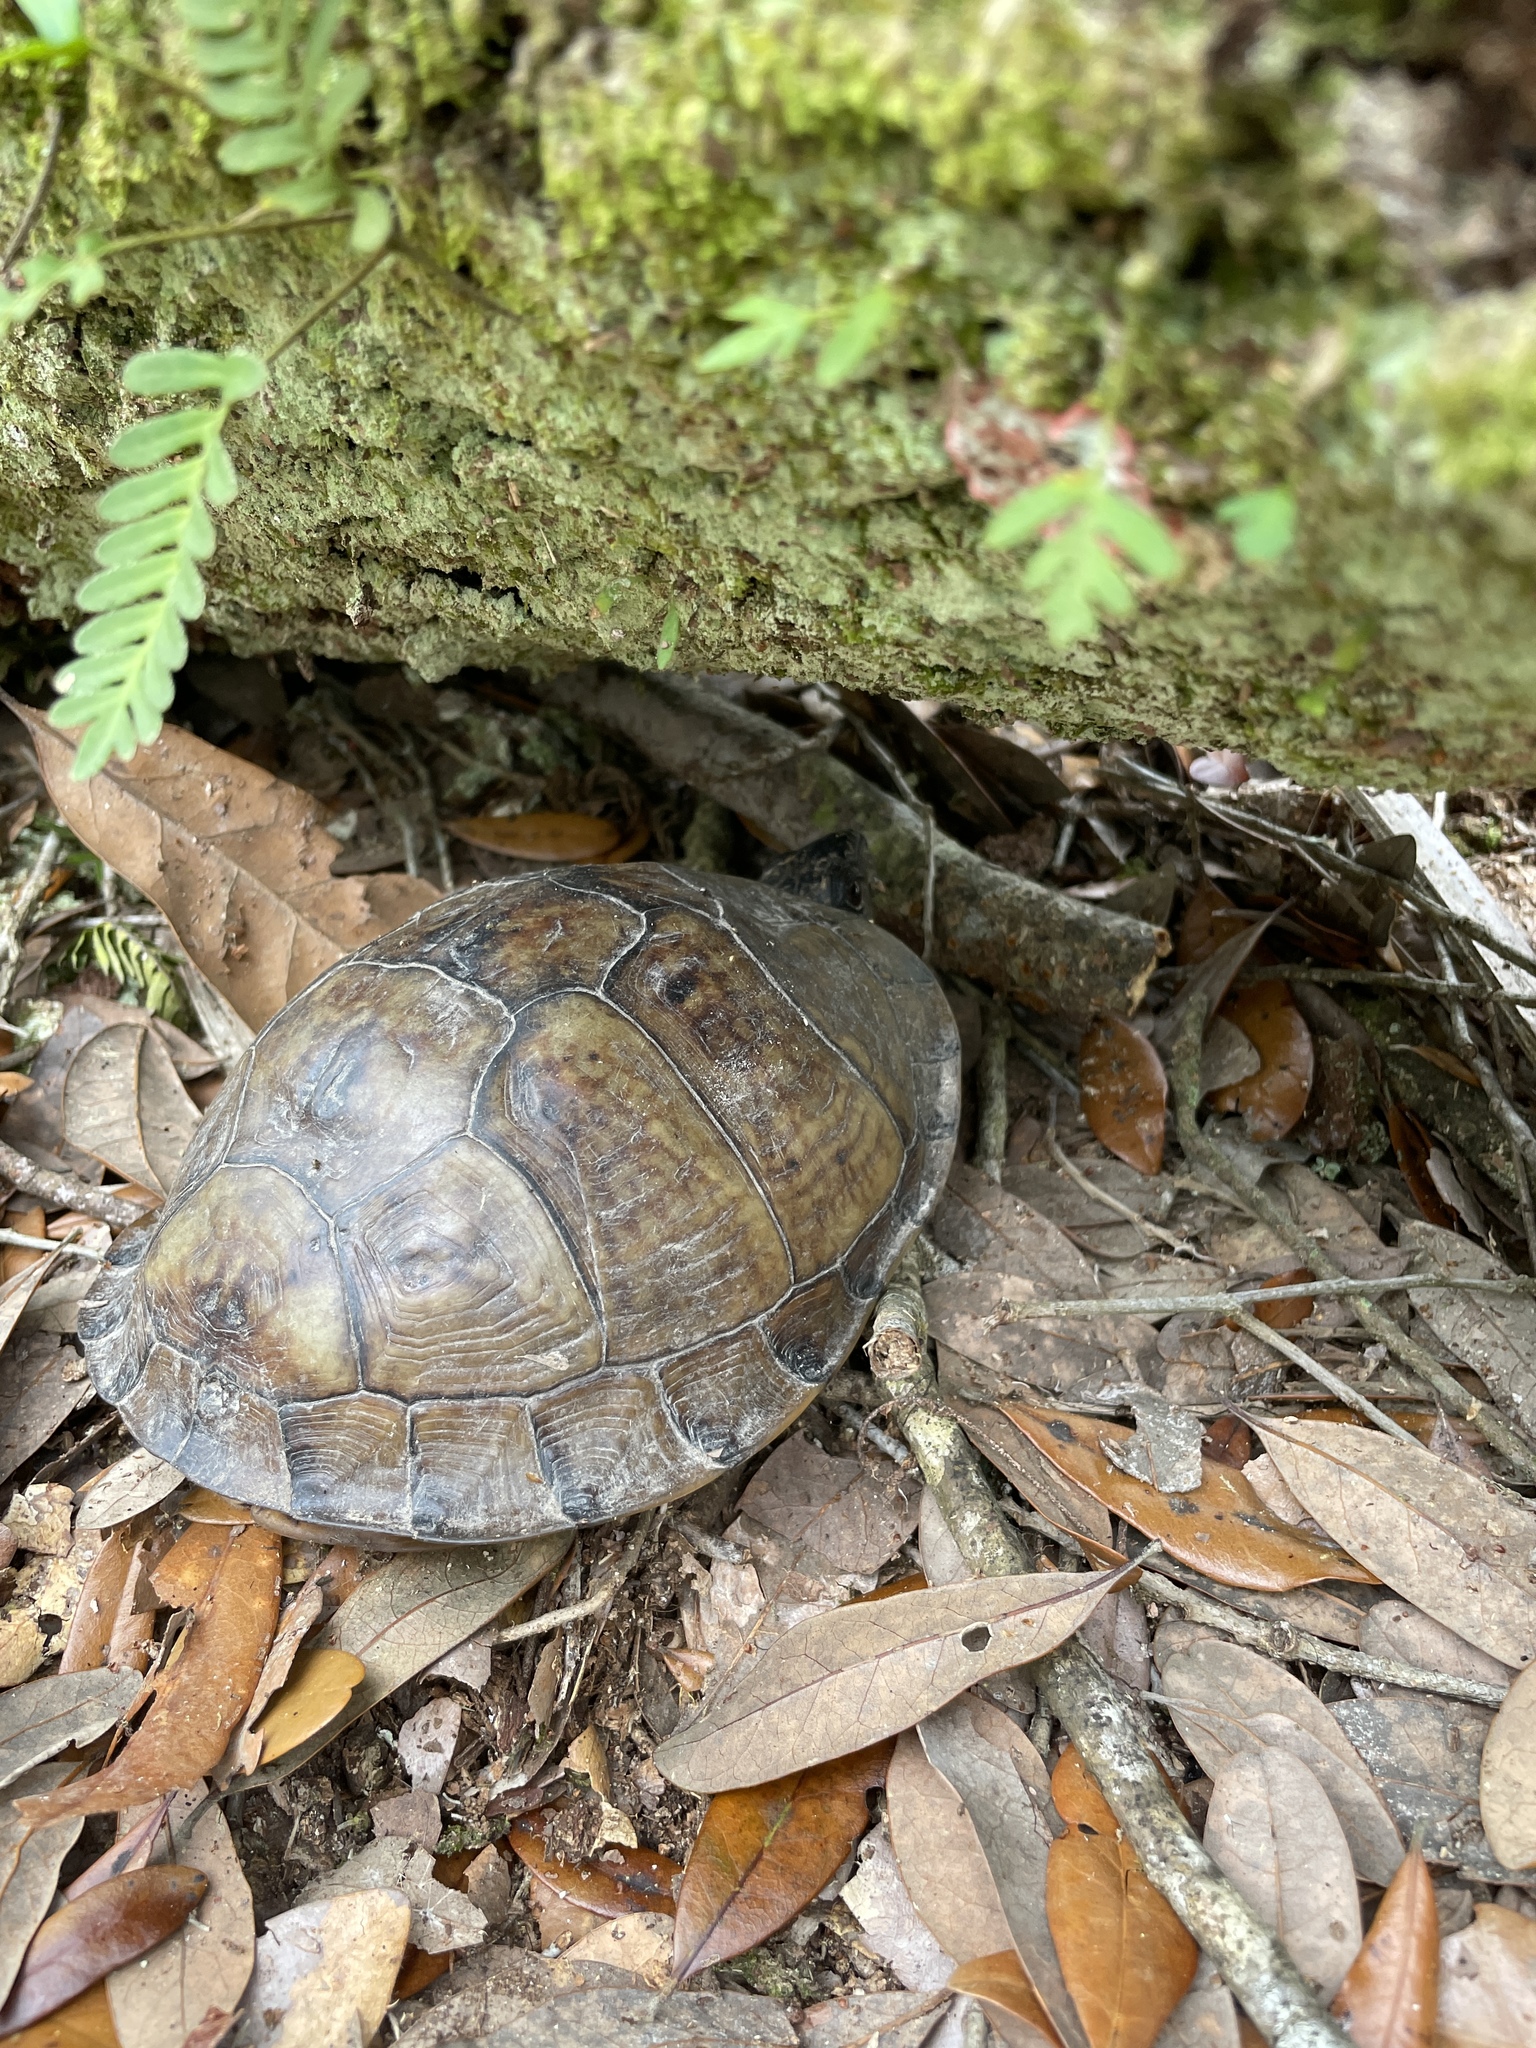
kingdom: Animalia
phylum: Chordata
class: Testudines
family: Emydidae
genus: Terrapene
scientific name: Terrapene carolina
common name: Common box turtle
